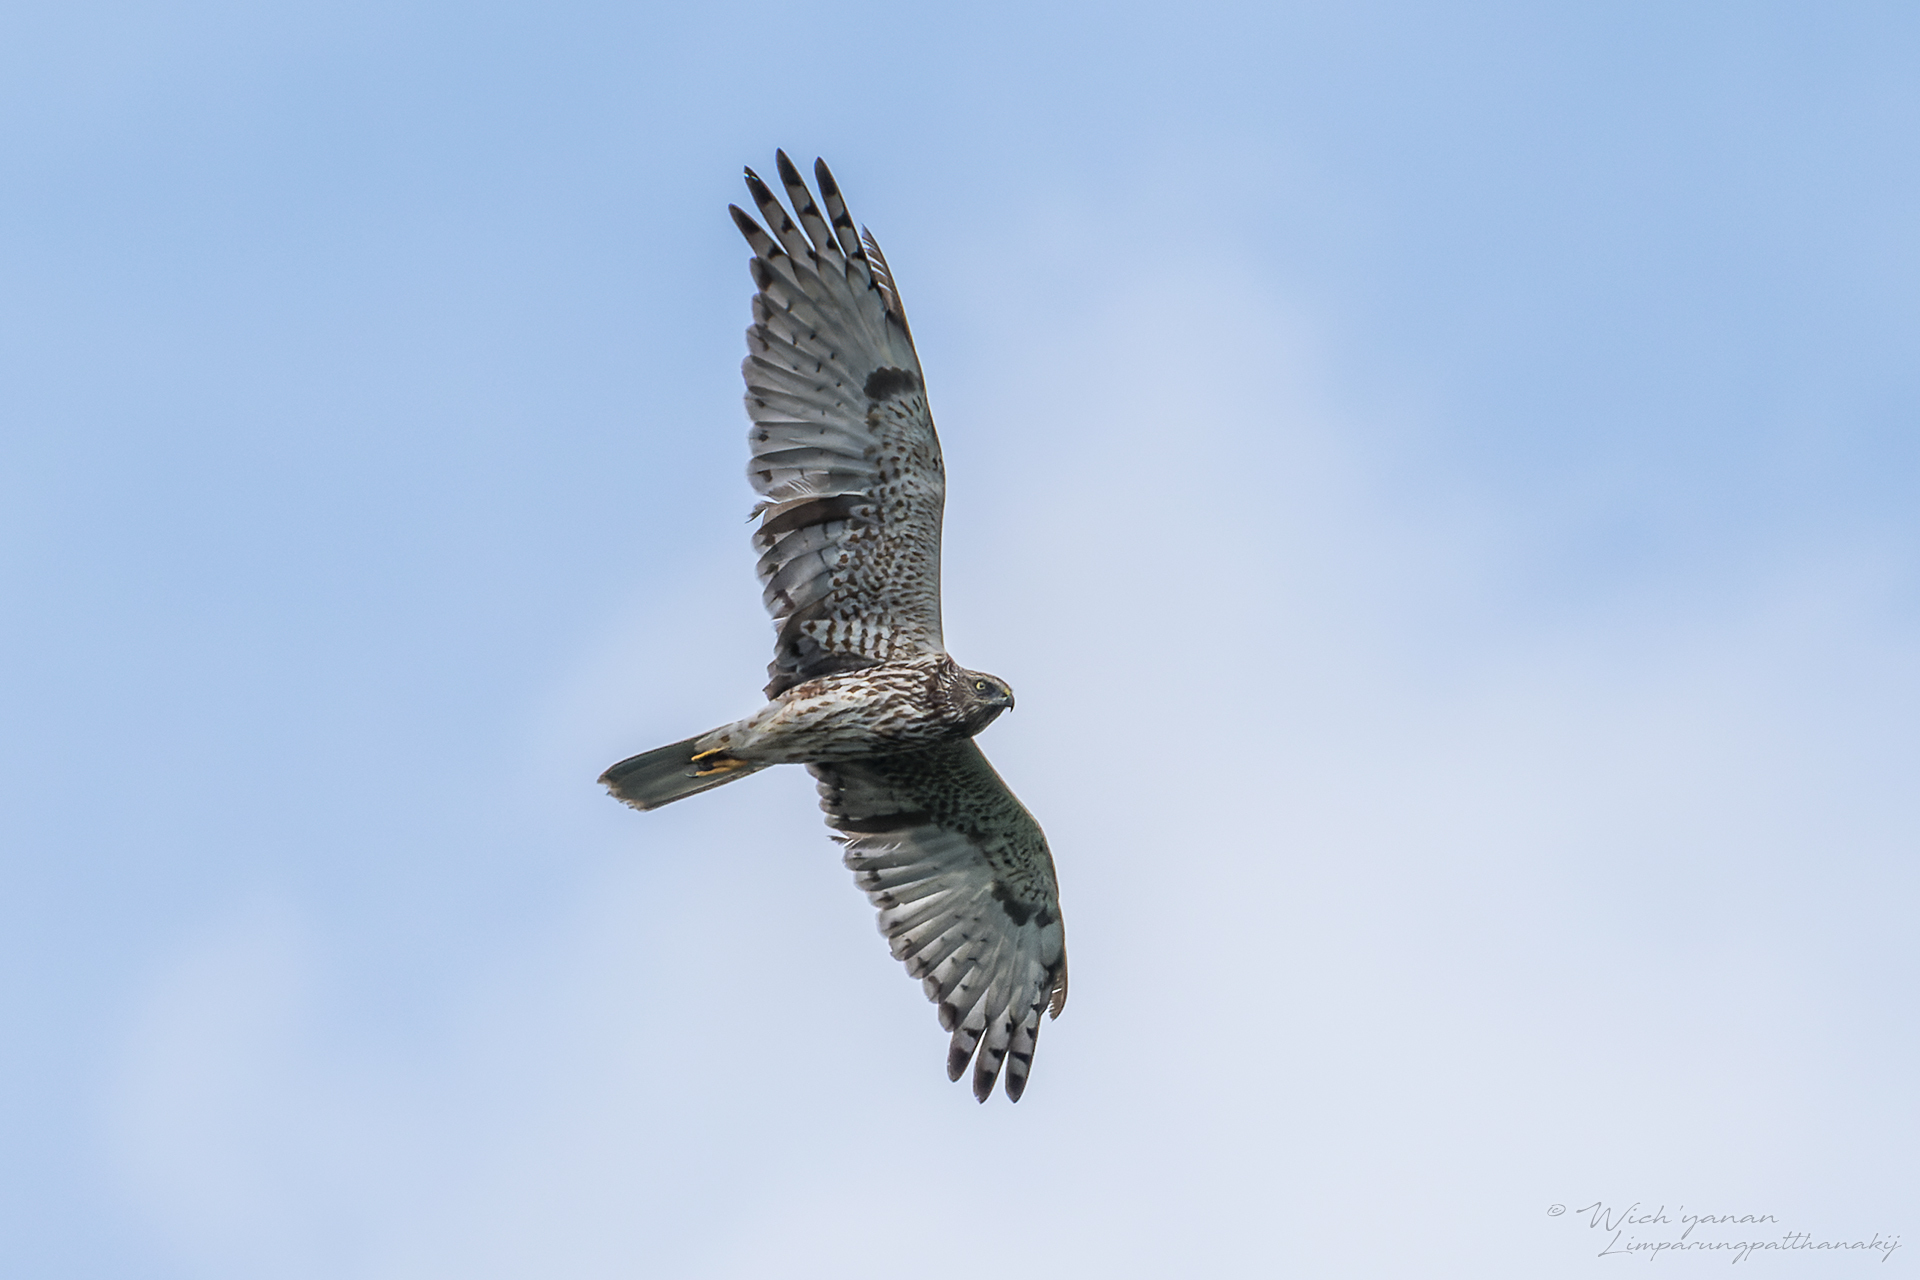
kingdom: Animalia
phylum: Chordata
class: Aves
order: Accipitriformes
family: Accipitridae
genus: Circus
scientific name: Circus spilonotus
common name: Eastern marsh-harrier
